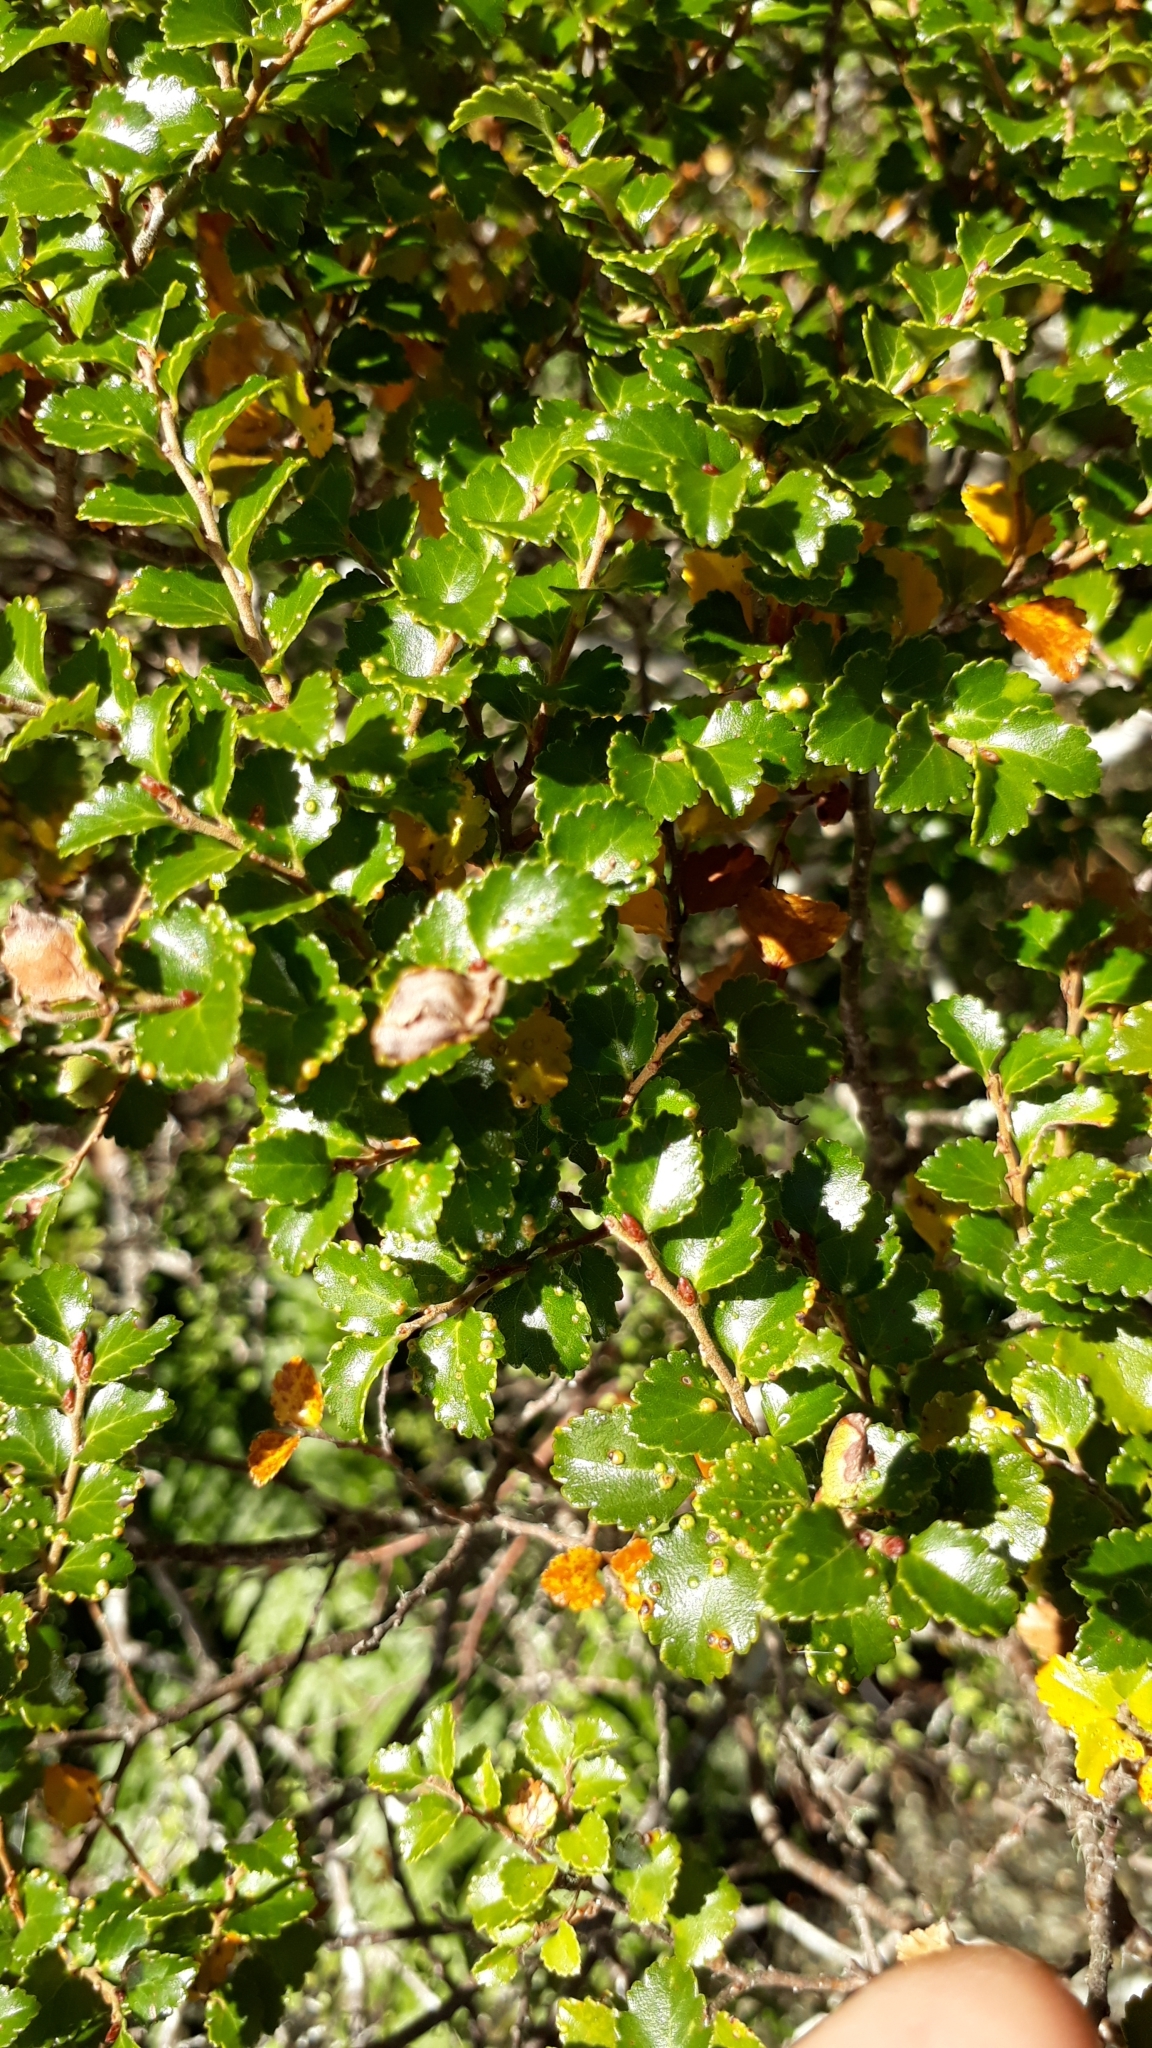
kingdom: Plantae
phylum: Tracheophyta
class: Magnoliopsida
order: Fagales
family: Nothofagaceae
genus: Nothofagus
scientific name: Nothofagus menziesii
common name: Silver beech
